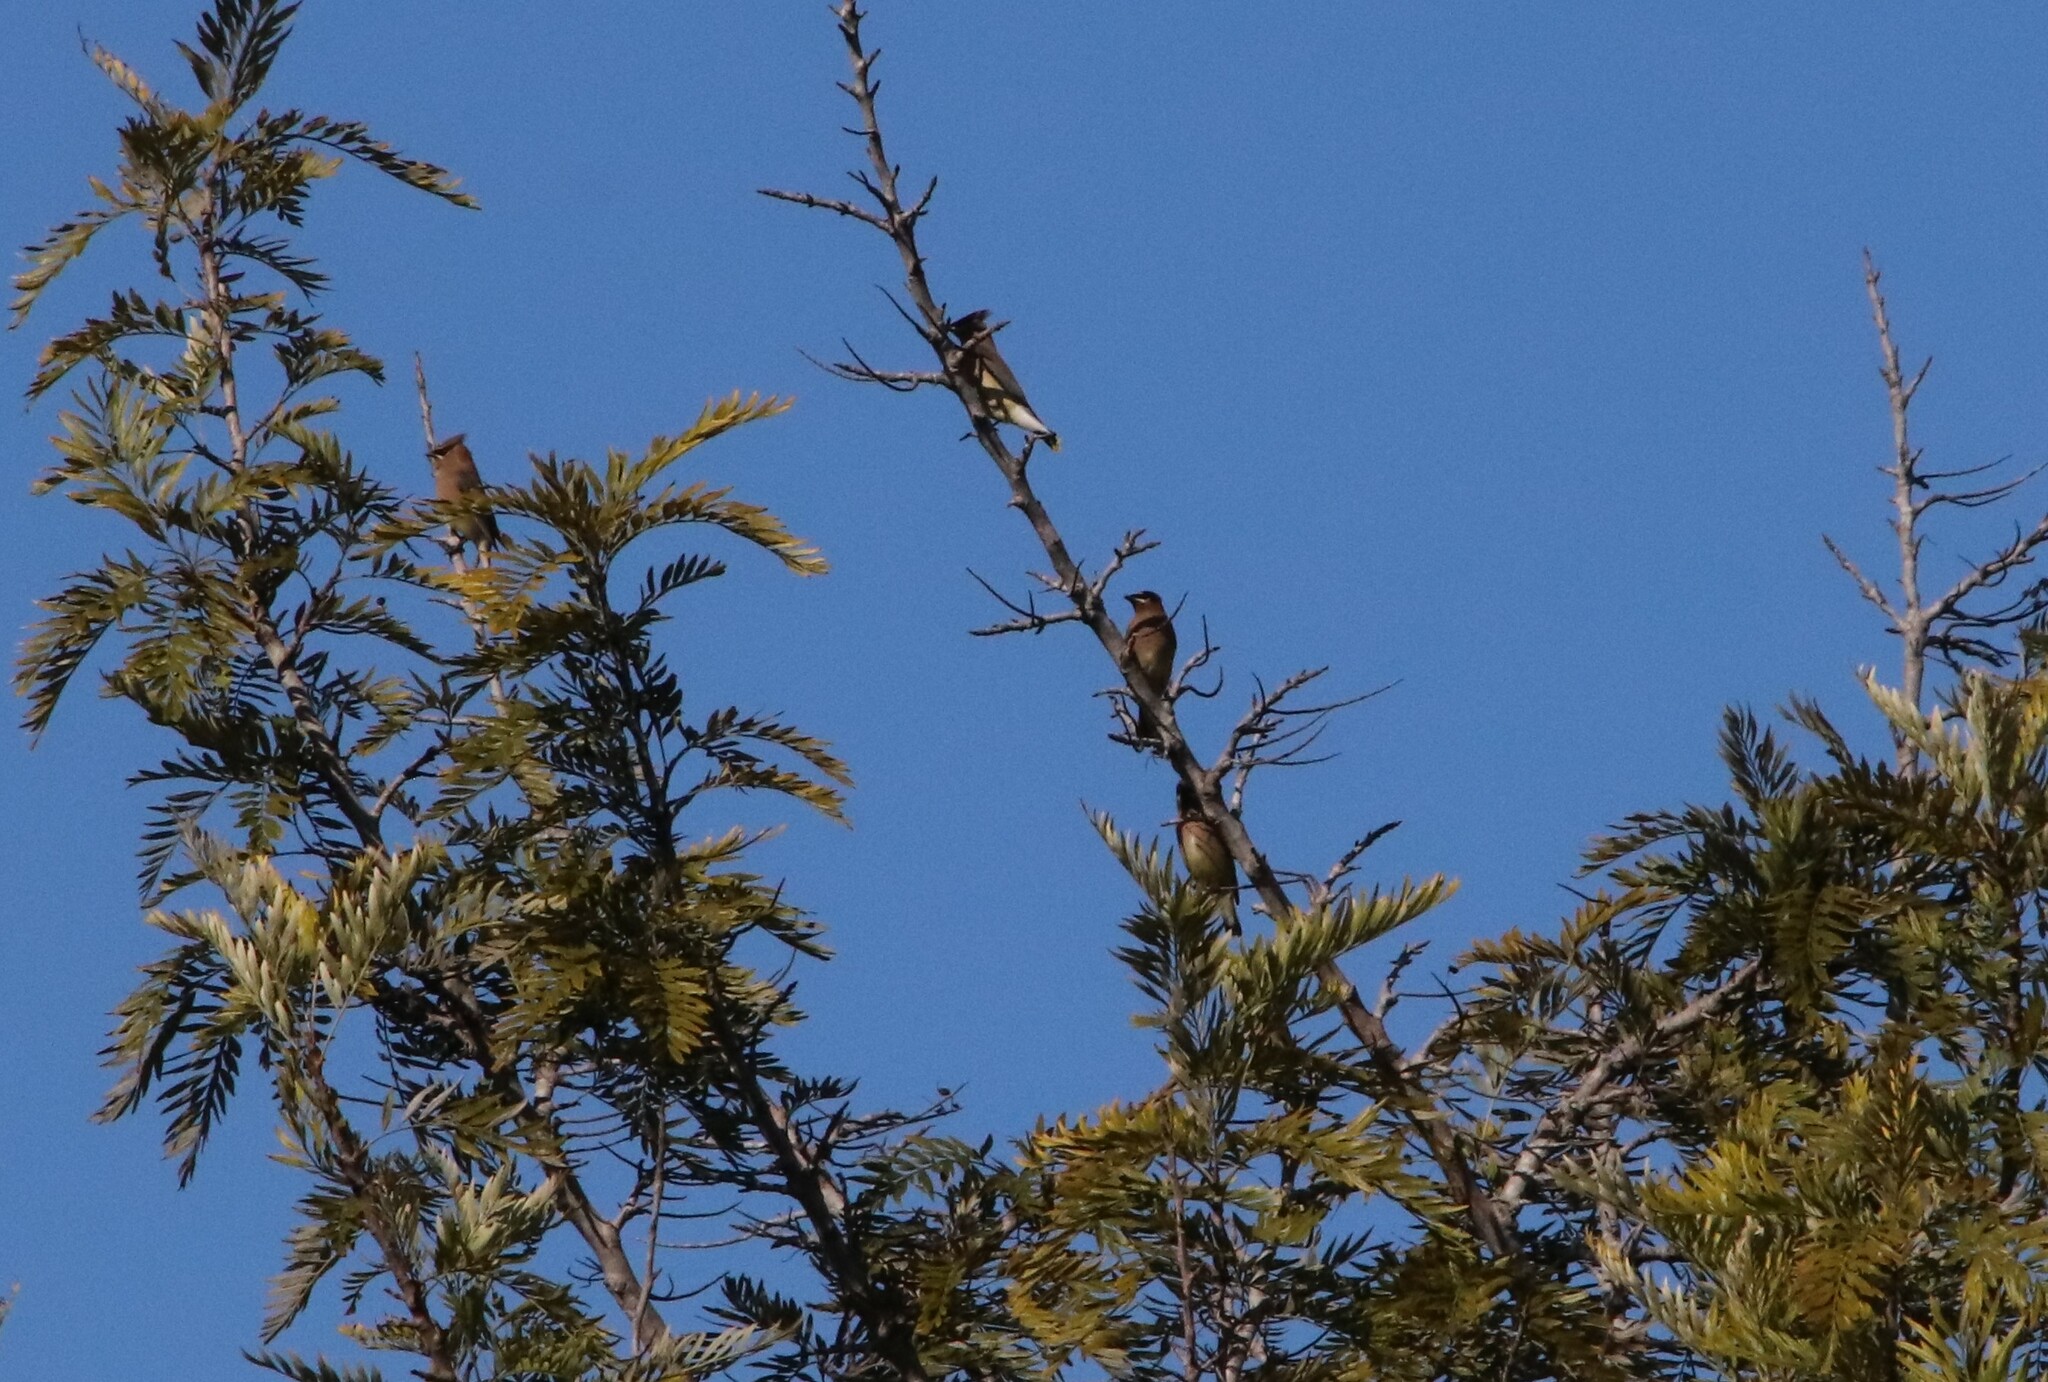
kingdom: Animalia
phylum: Chordata
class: Aves
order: Passeriformes
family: Bombycillidae
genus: Bombycilla
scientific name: Bombycilla cedrorum
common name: Cedar waxwing
